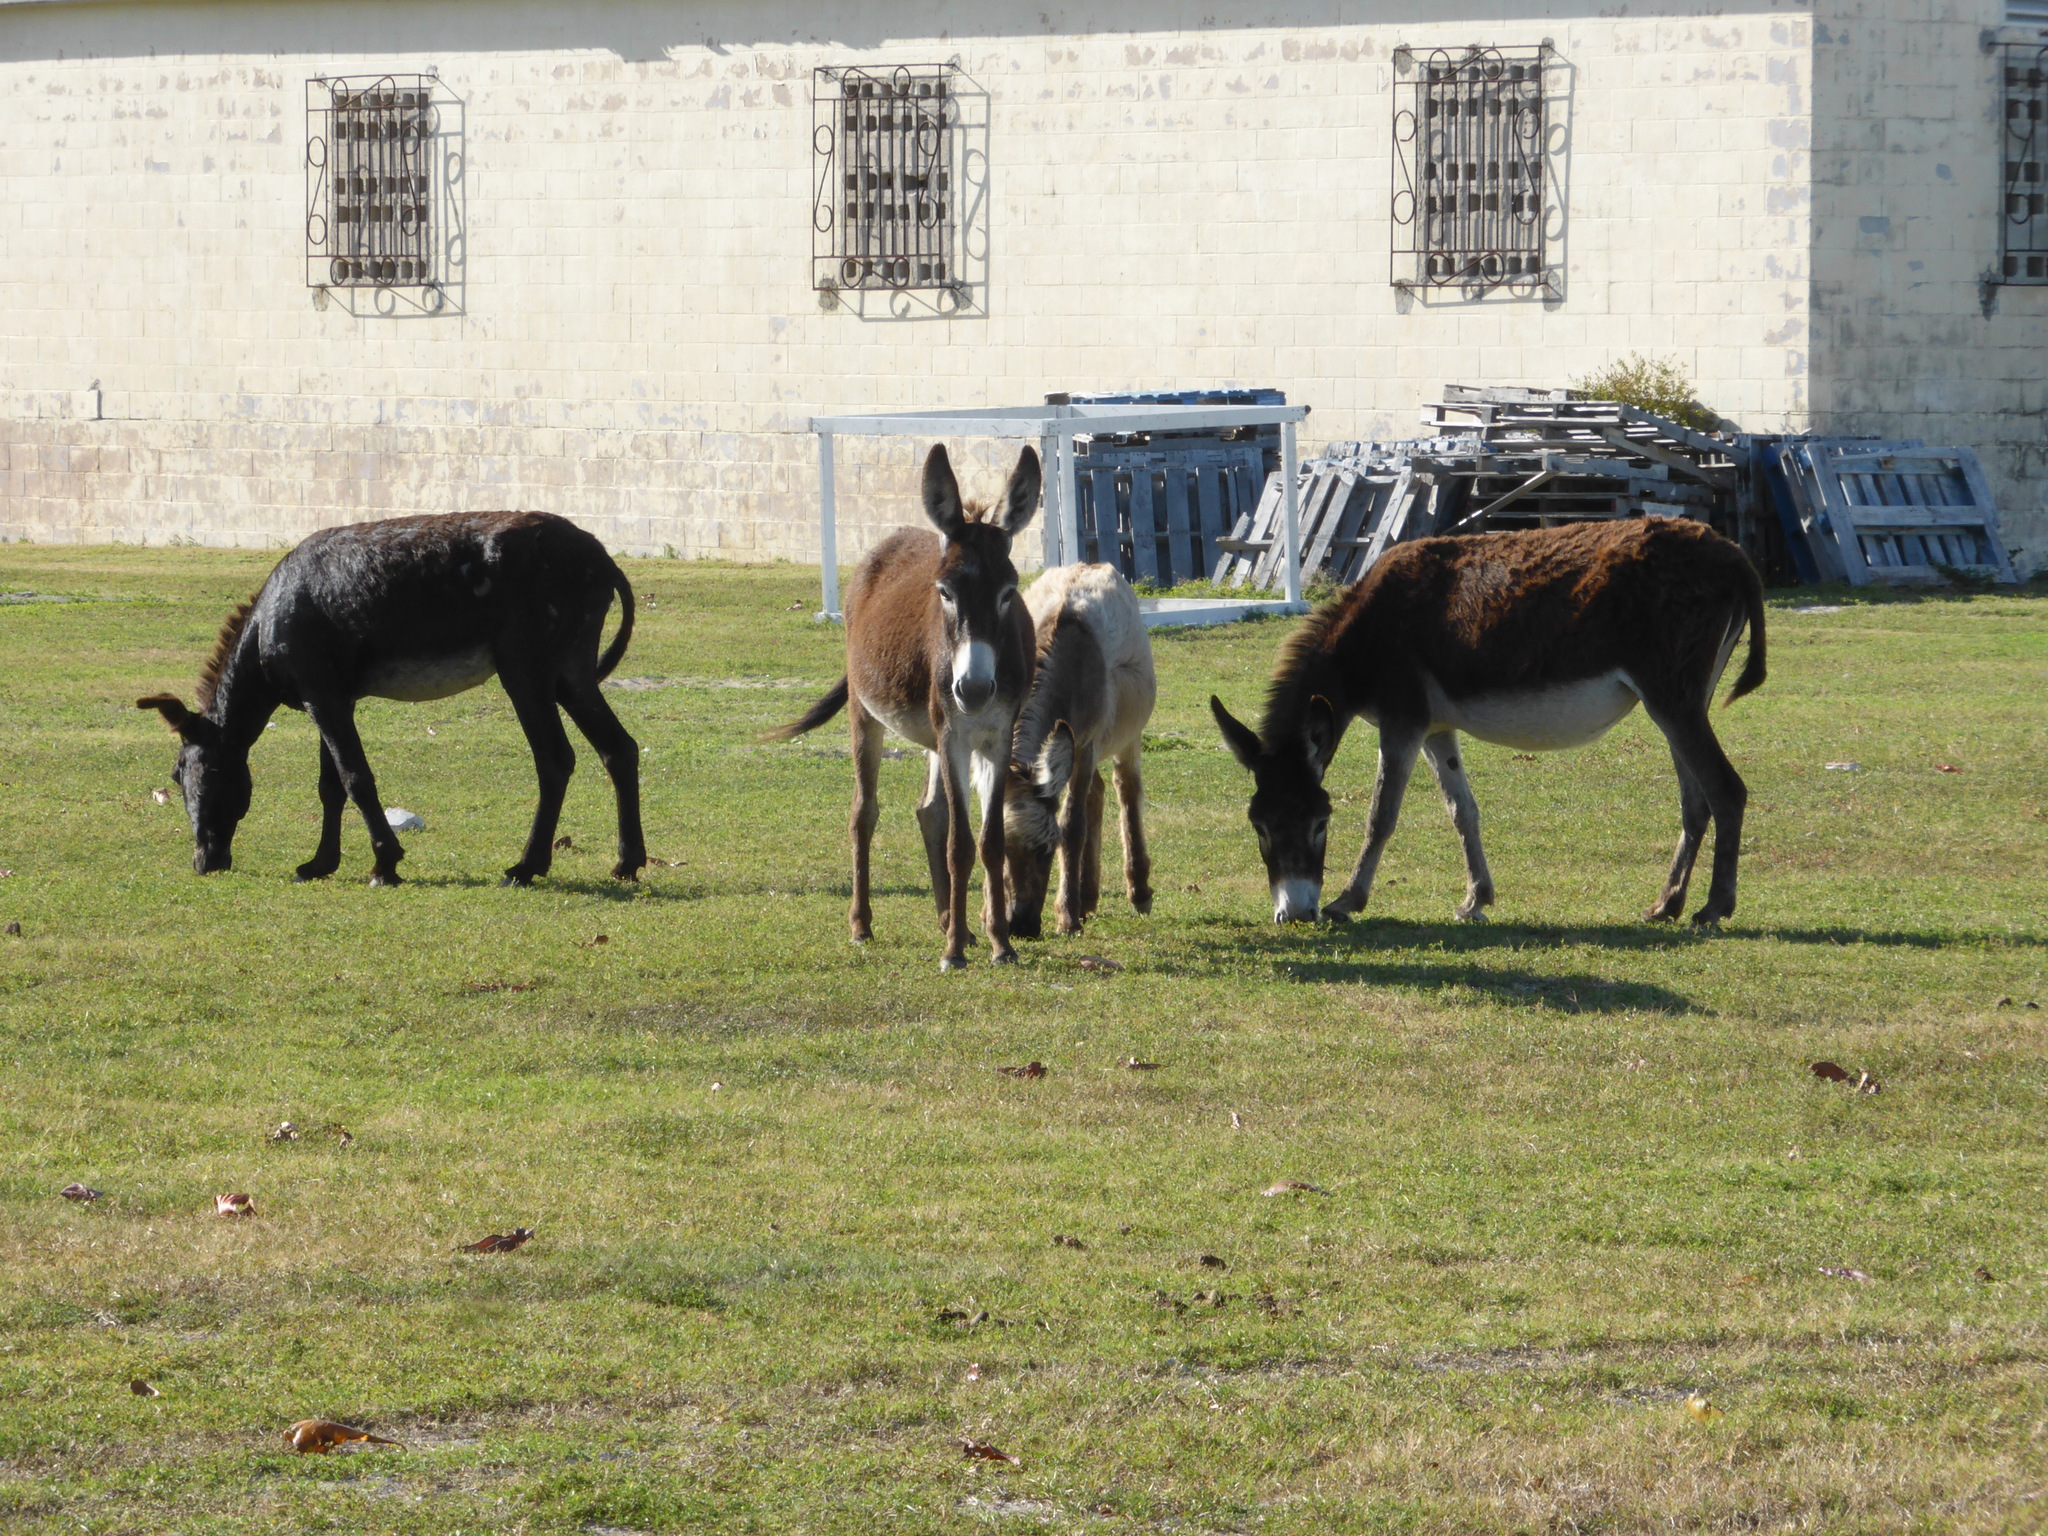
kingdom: Animalia
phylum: Chordata
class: Mammalia
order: Perissodactyla
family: Equidae
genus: Equus
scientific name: Equus asinus
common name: Ass
